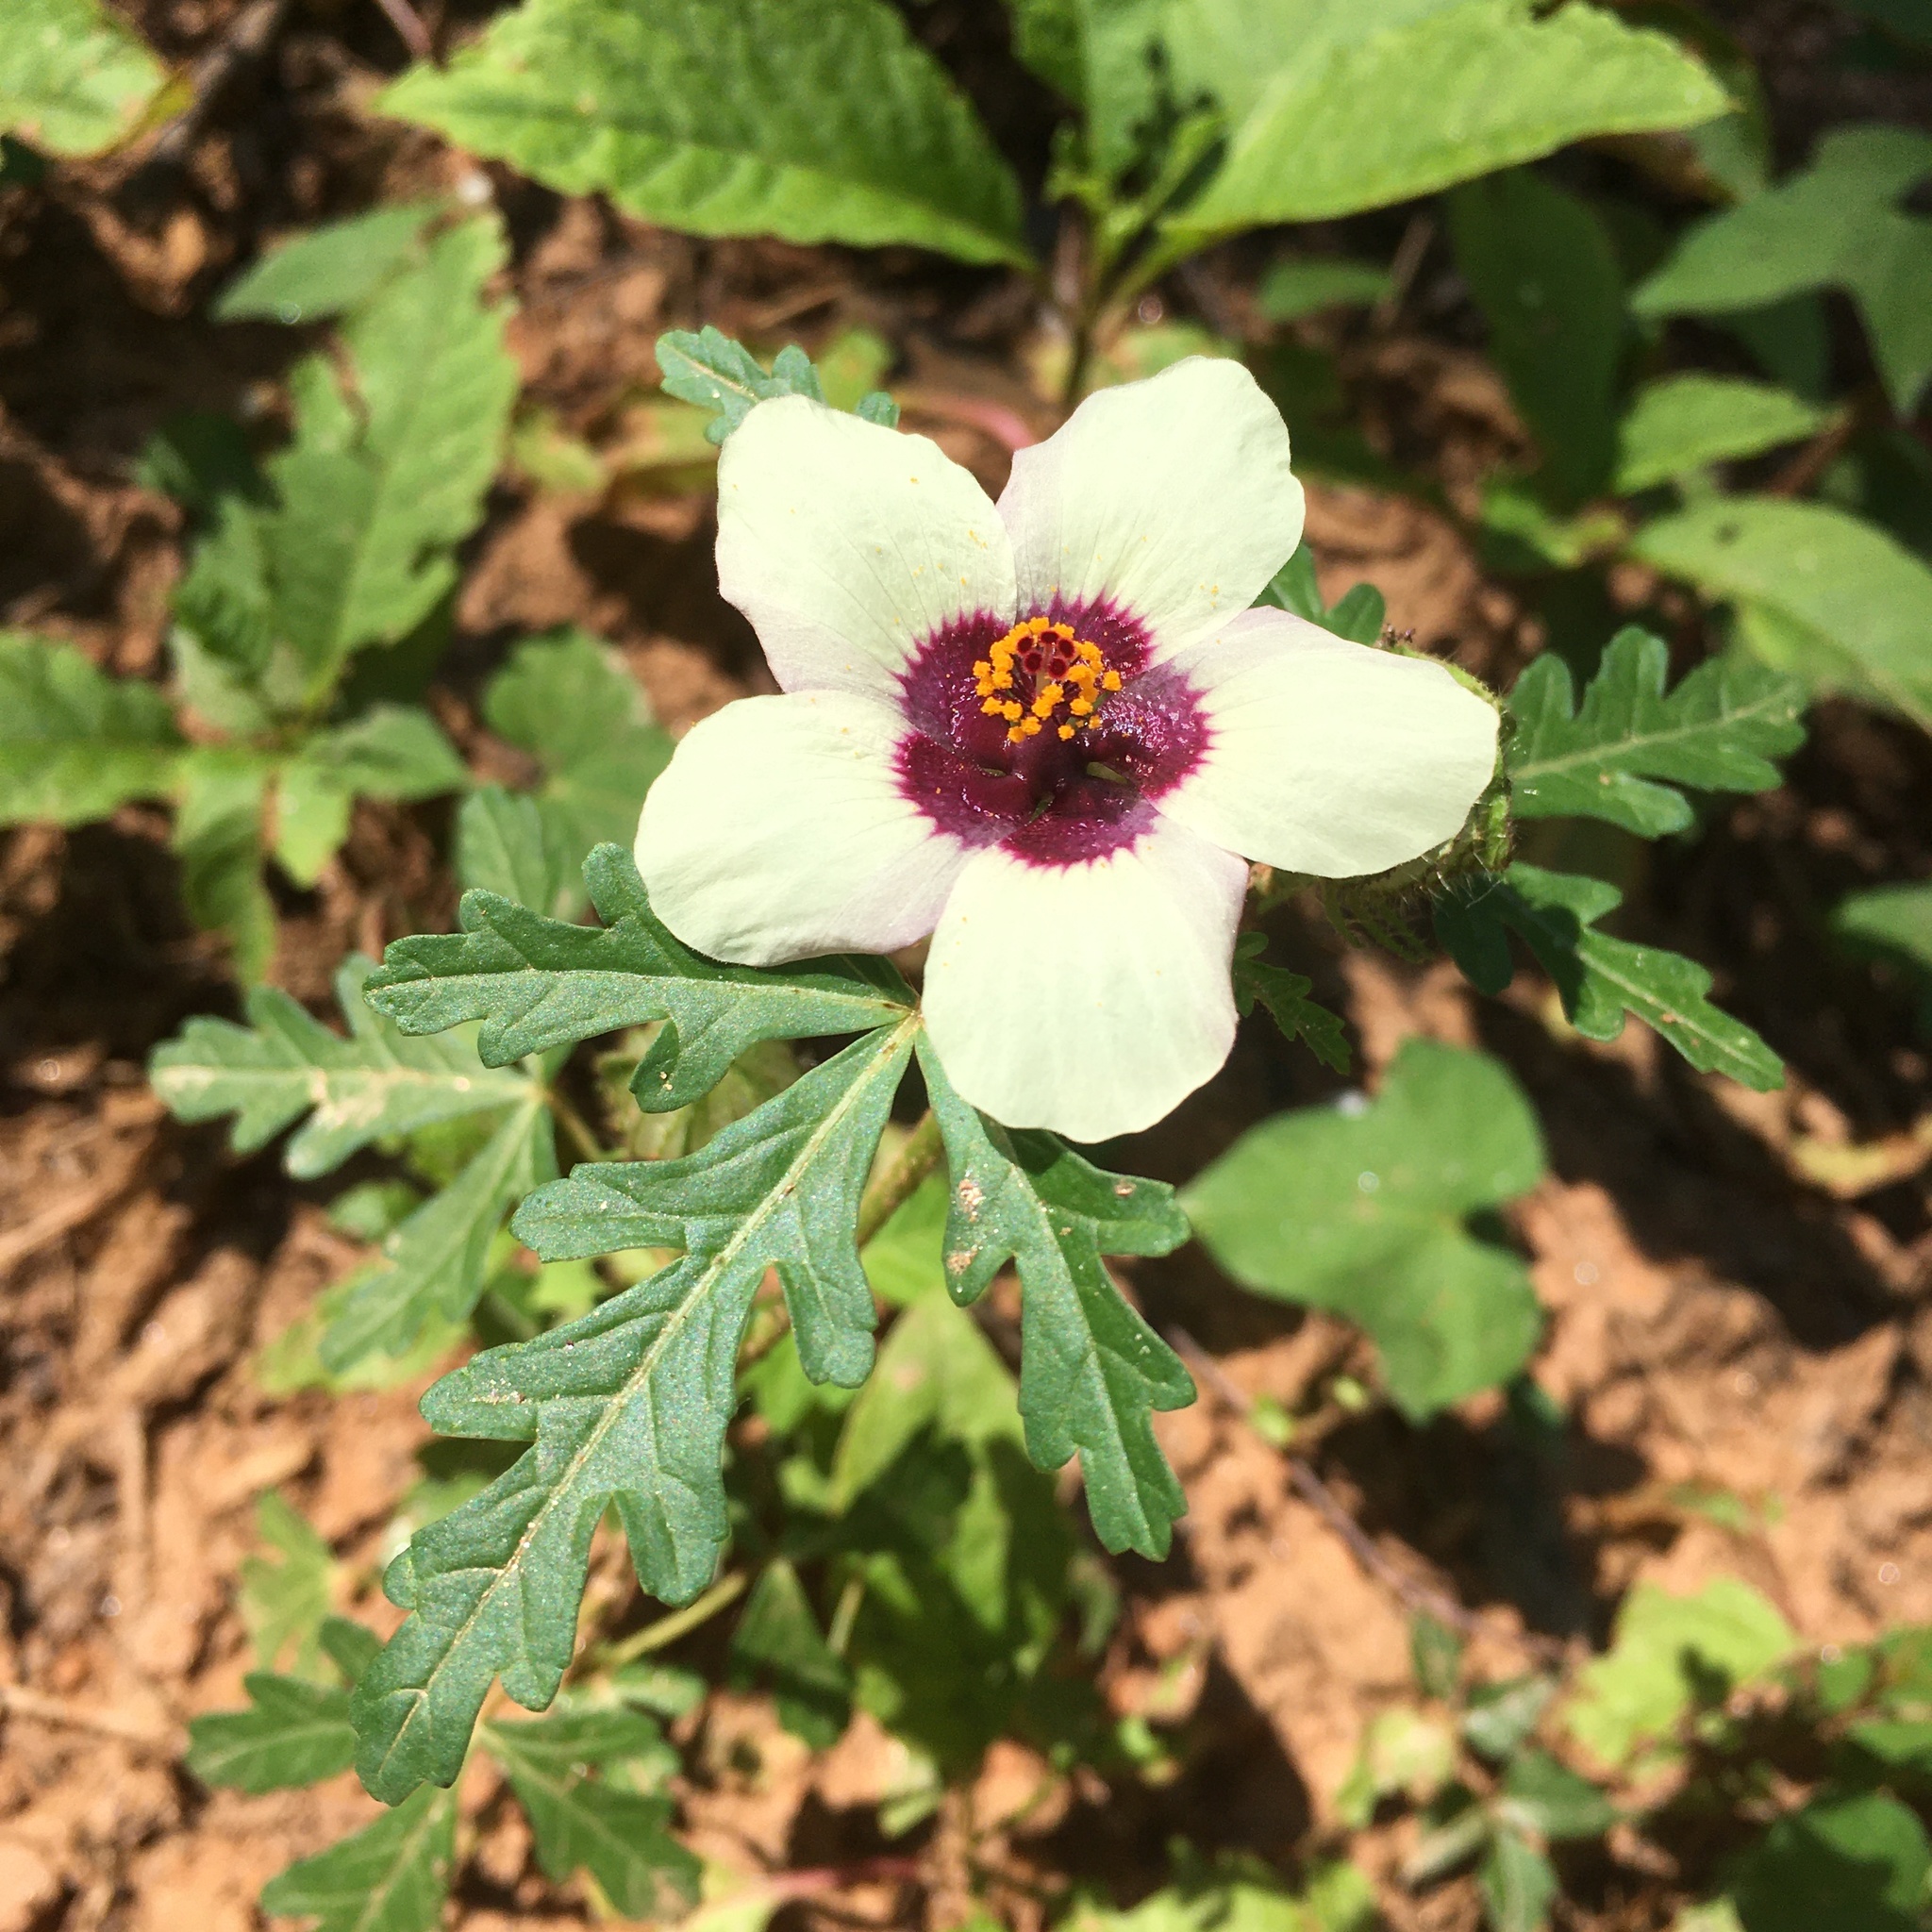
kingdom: Plantae
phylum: Tracheophyta
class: Magnoliopsida
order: Malvales
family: Malvaceae
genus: Hibiscus
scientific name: Hibiscus trionum
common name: Bladder ketmia
